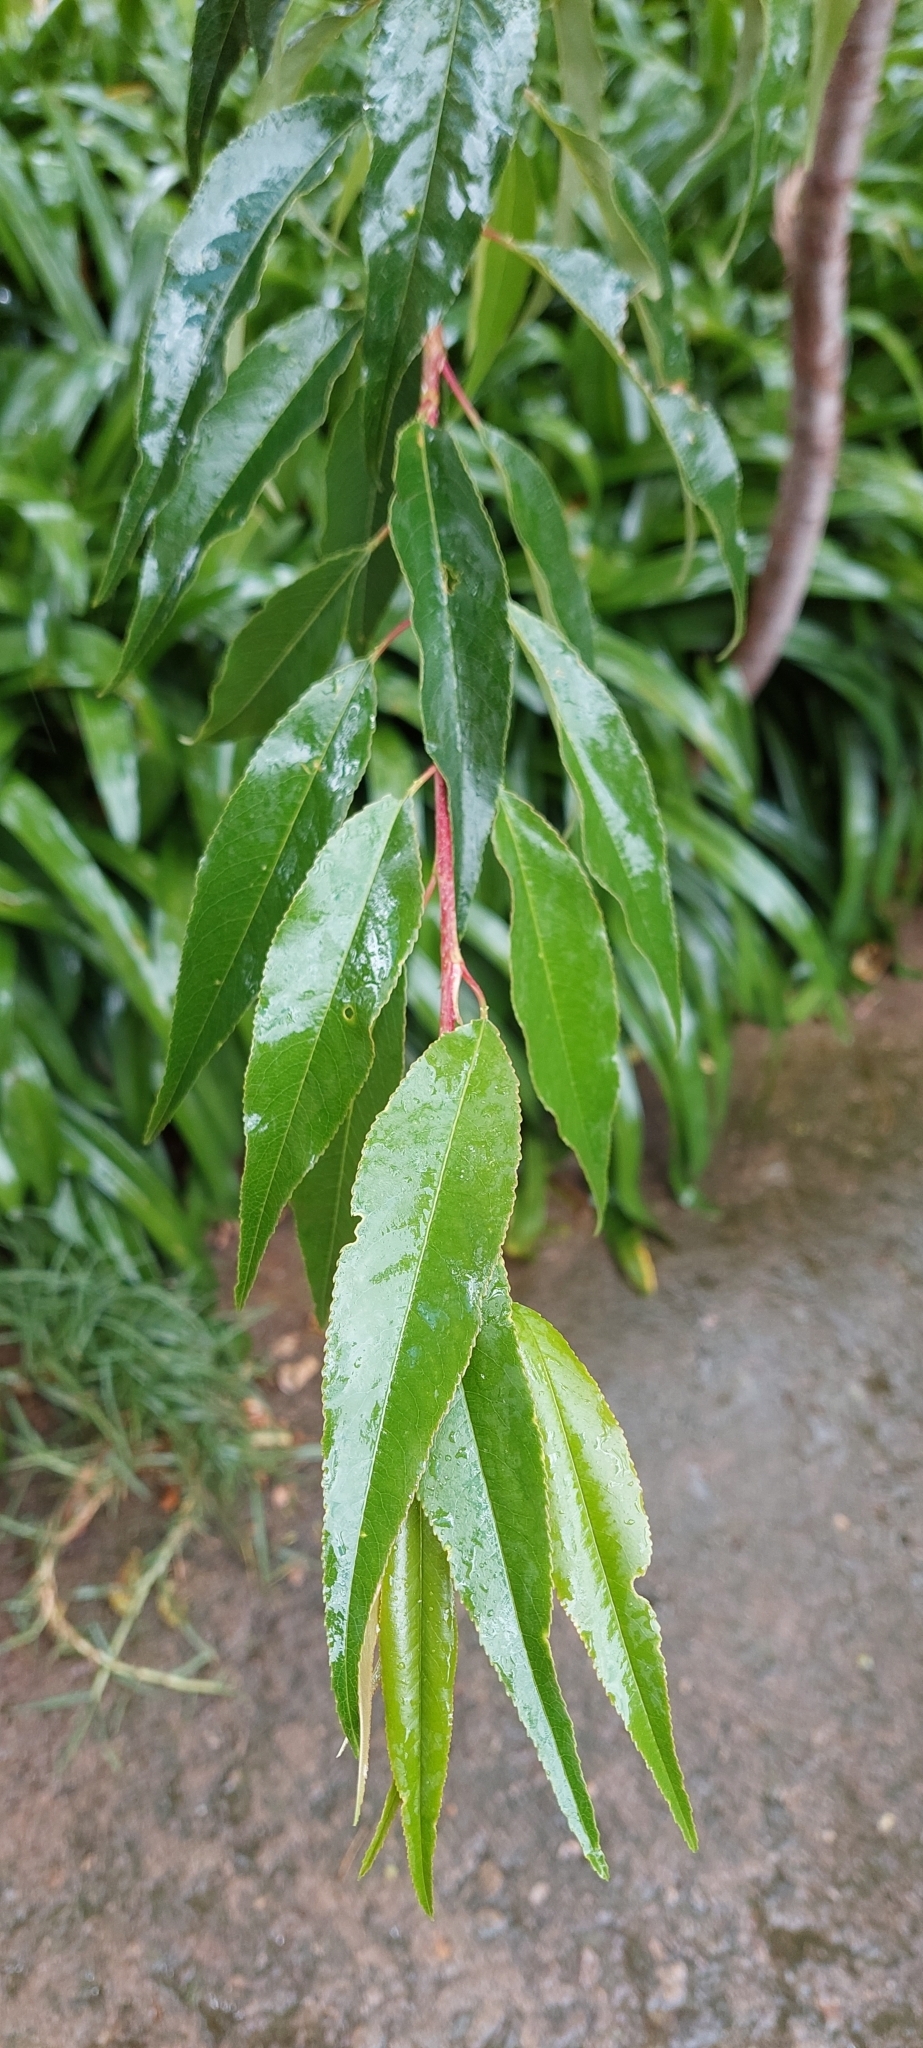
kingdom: Plantae
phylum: Tracheophyta
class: Magnoliopsida
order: Rosales
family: Rosaceae
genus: Prunus
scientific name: Prunus serotina
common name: Black cherry
